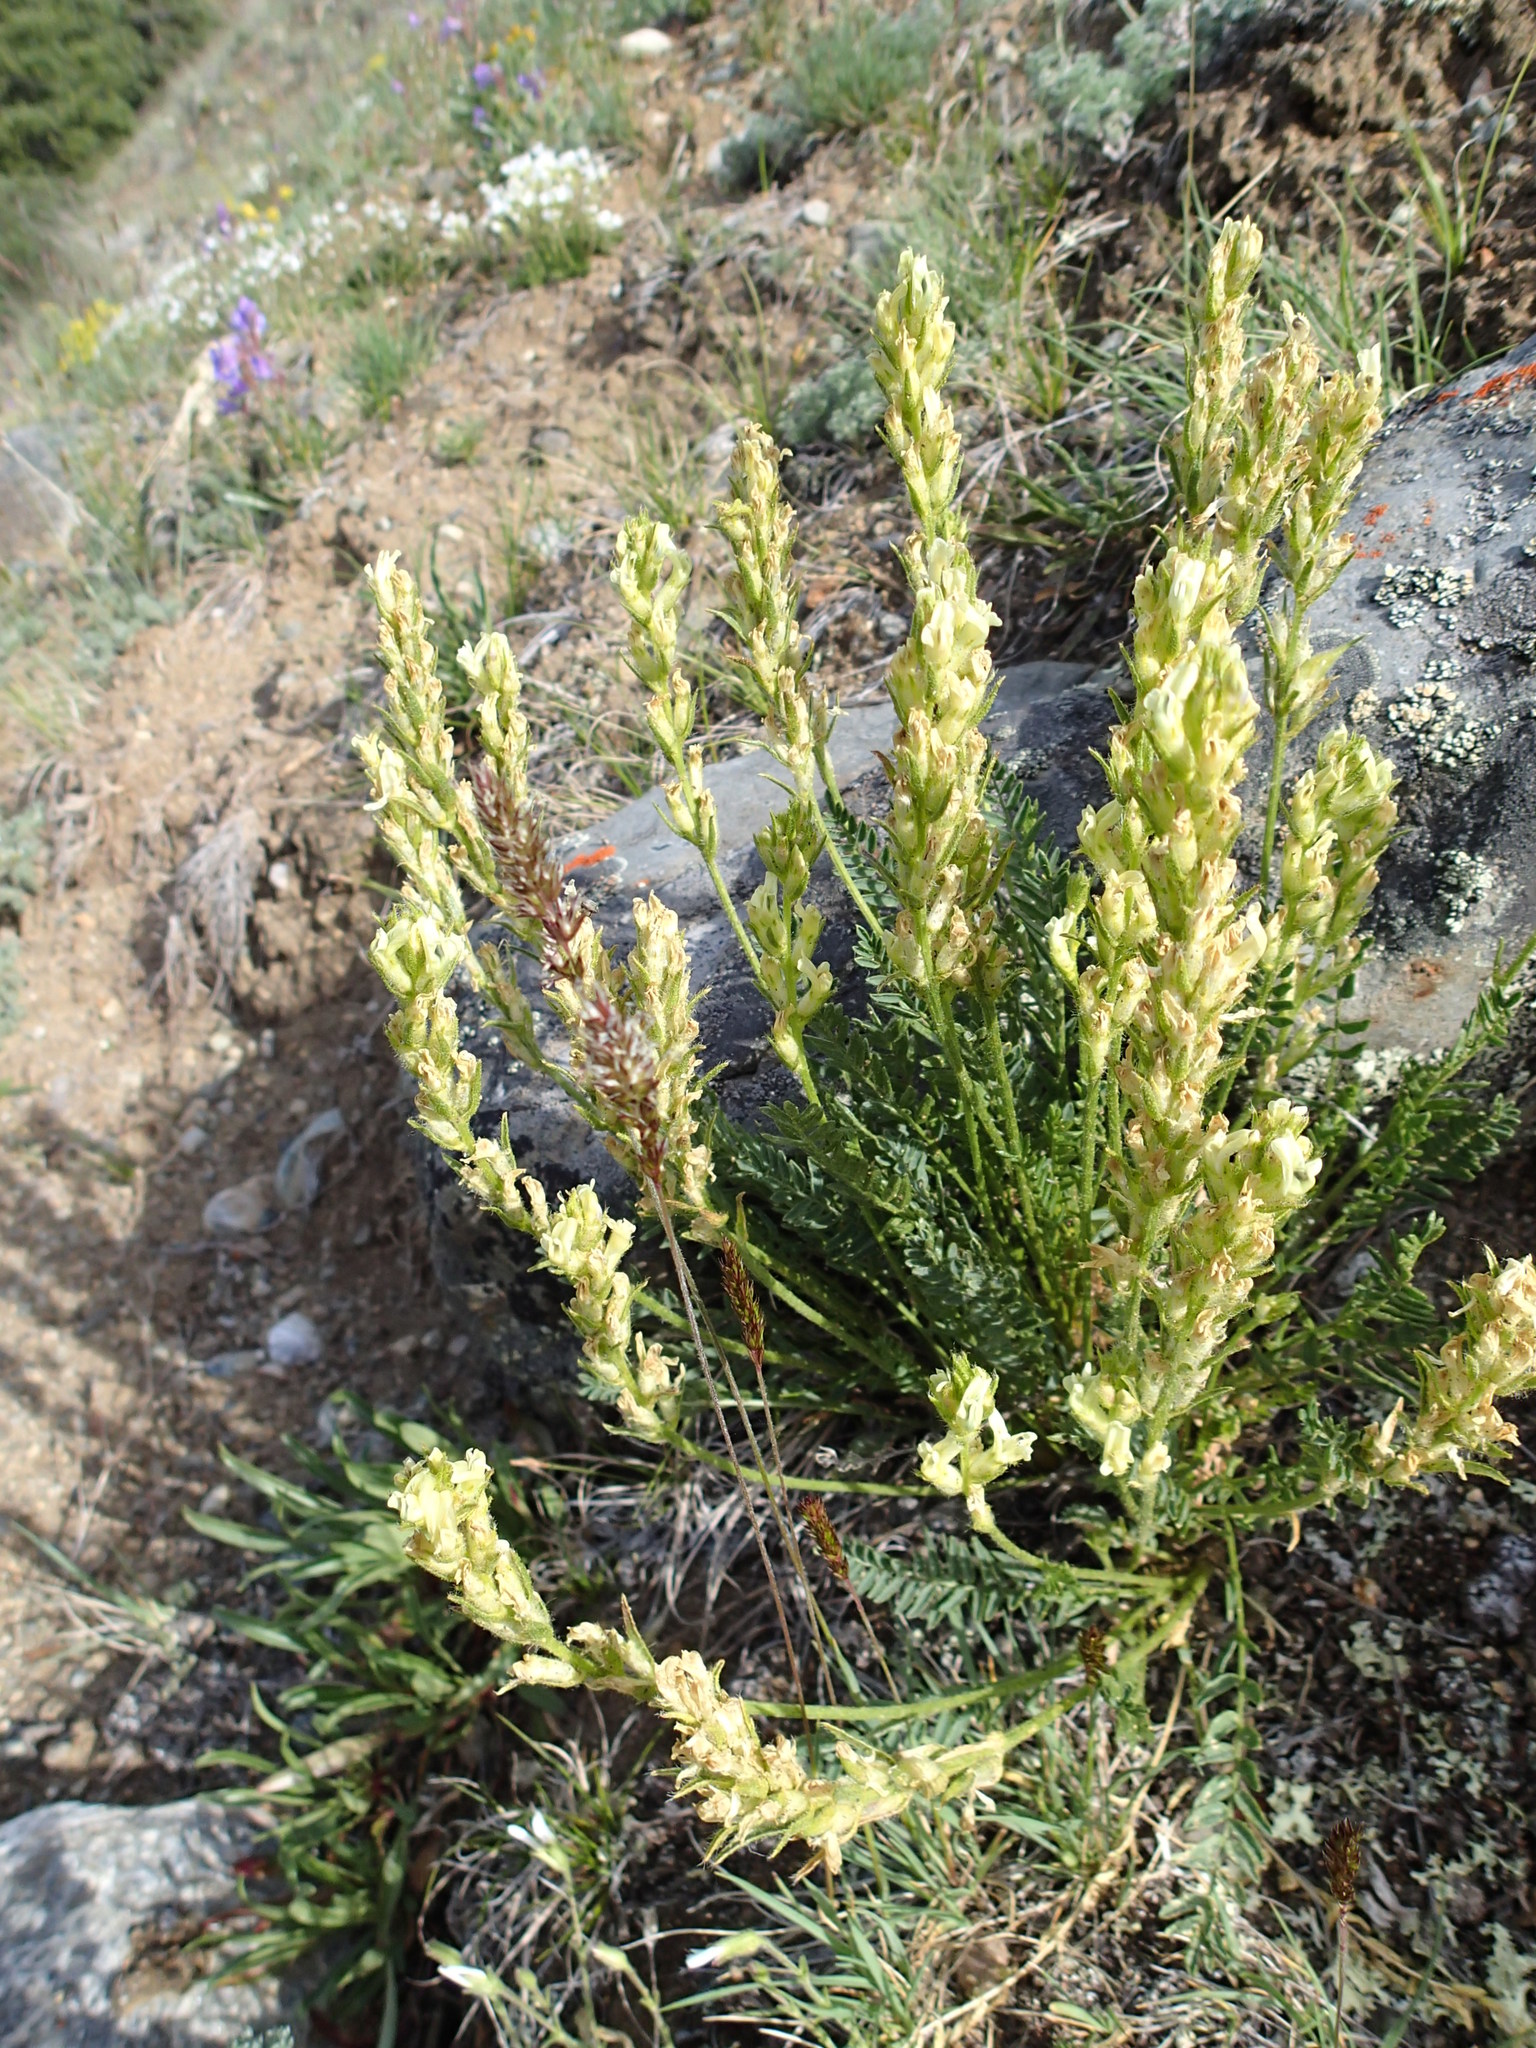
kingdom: Plantae
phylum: Tracheophyta
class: Magnoliopsida
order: Fabales
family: Fabaceae
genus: Oxytropis
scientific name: Oxytropis borealis
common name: Boreal locoweed
